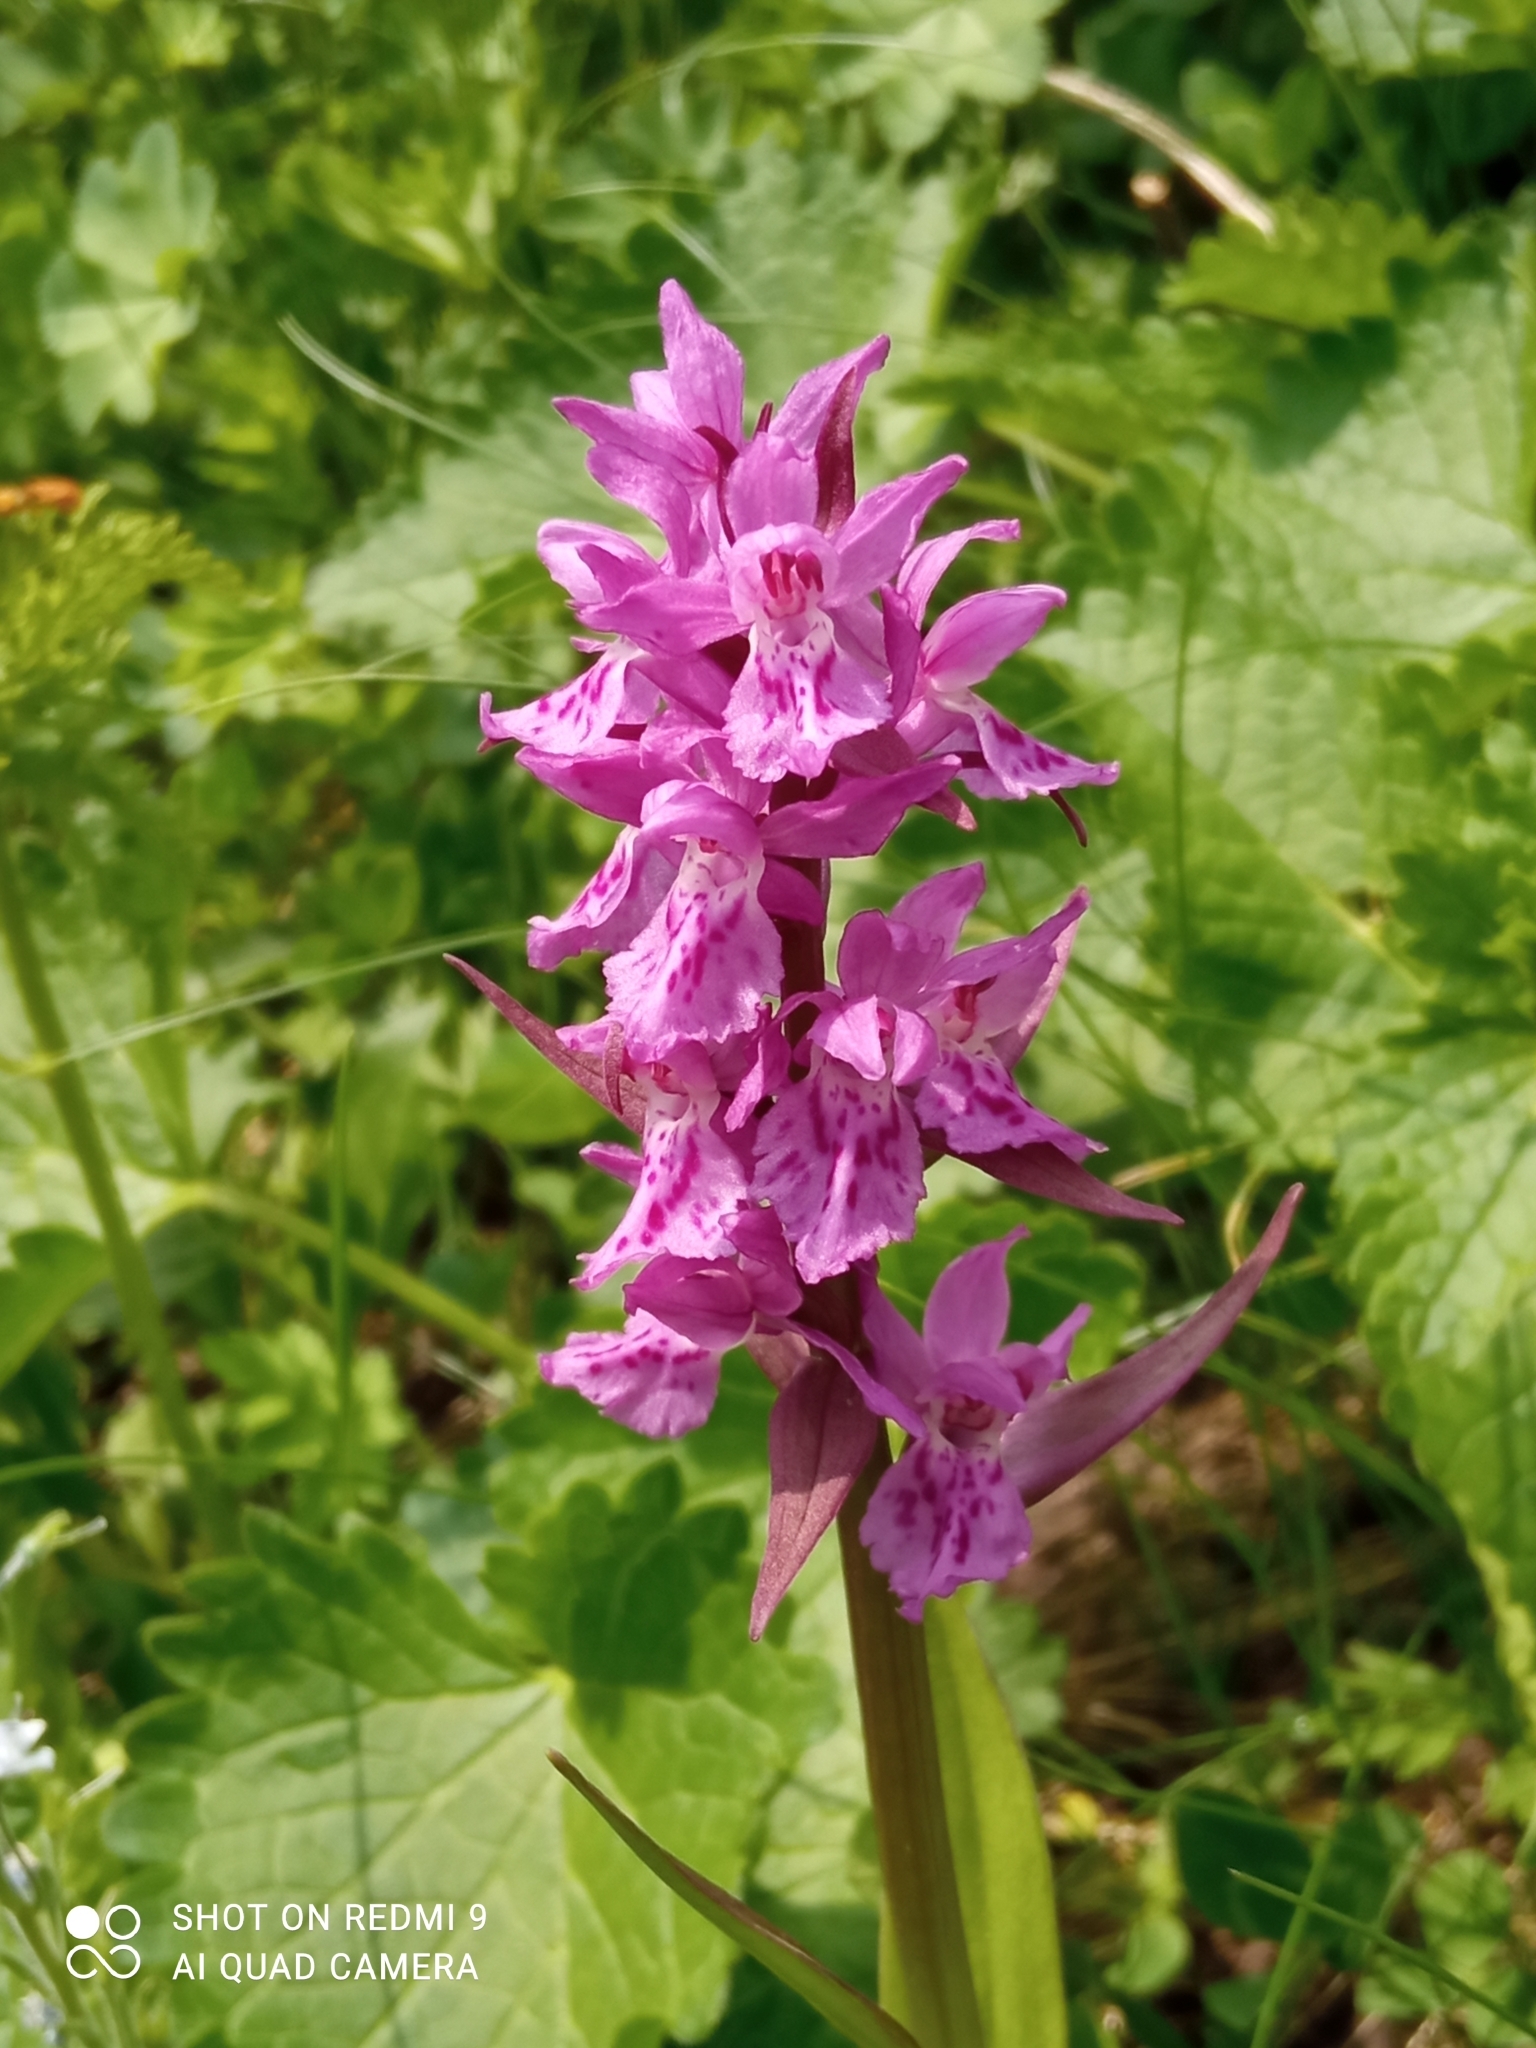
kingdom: Plantae
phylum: Tracheophyta
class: Liliopsida
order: Asparagales
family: Orchidaceae
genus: Dactylorhiza
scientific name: Dactylorhiza euxina
